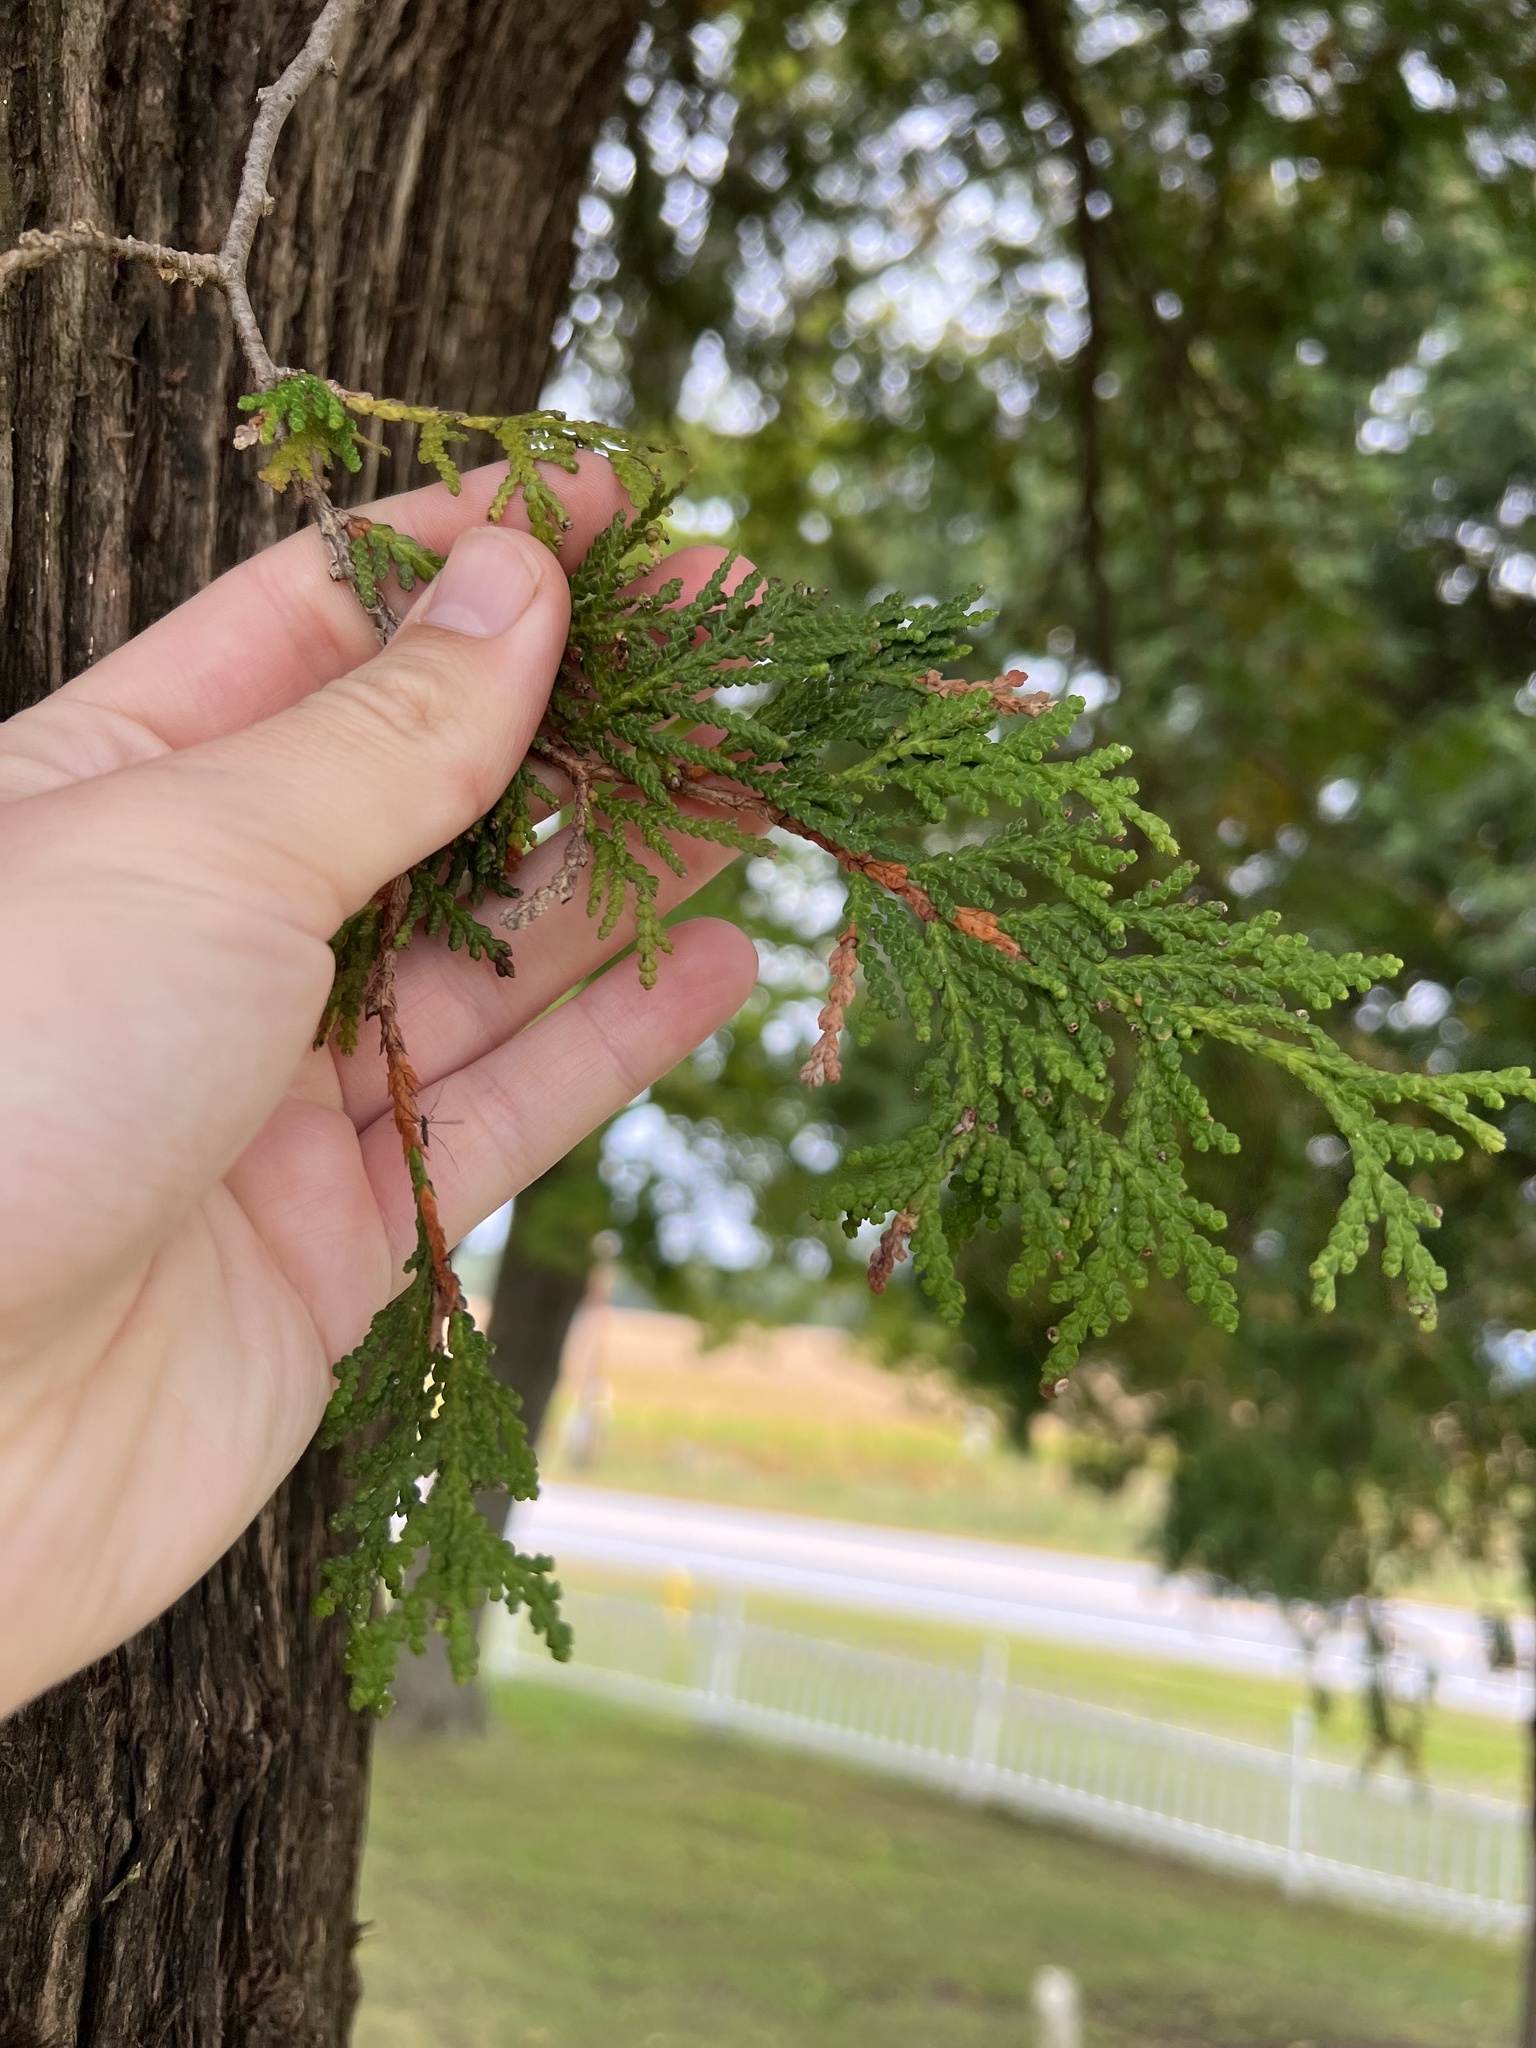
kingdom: Plantae
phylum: Tracheophyta
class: Pinopsida
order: Pinales
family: Cupressaceae
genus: Thuja
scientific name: Thuja occidentalis
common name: Northern white-cedar
